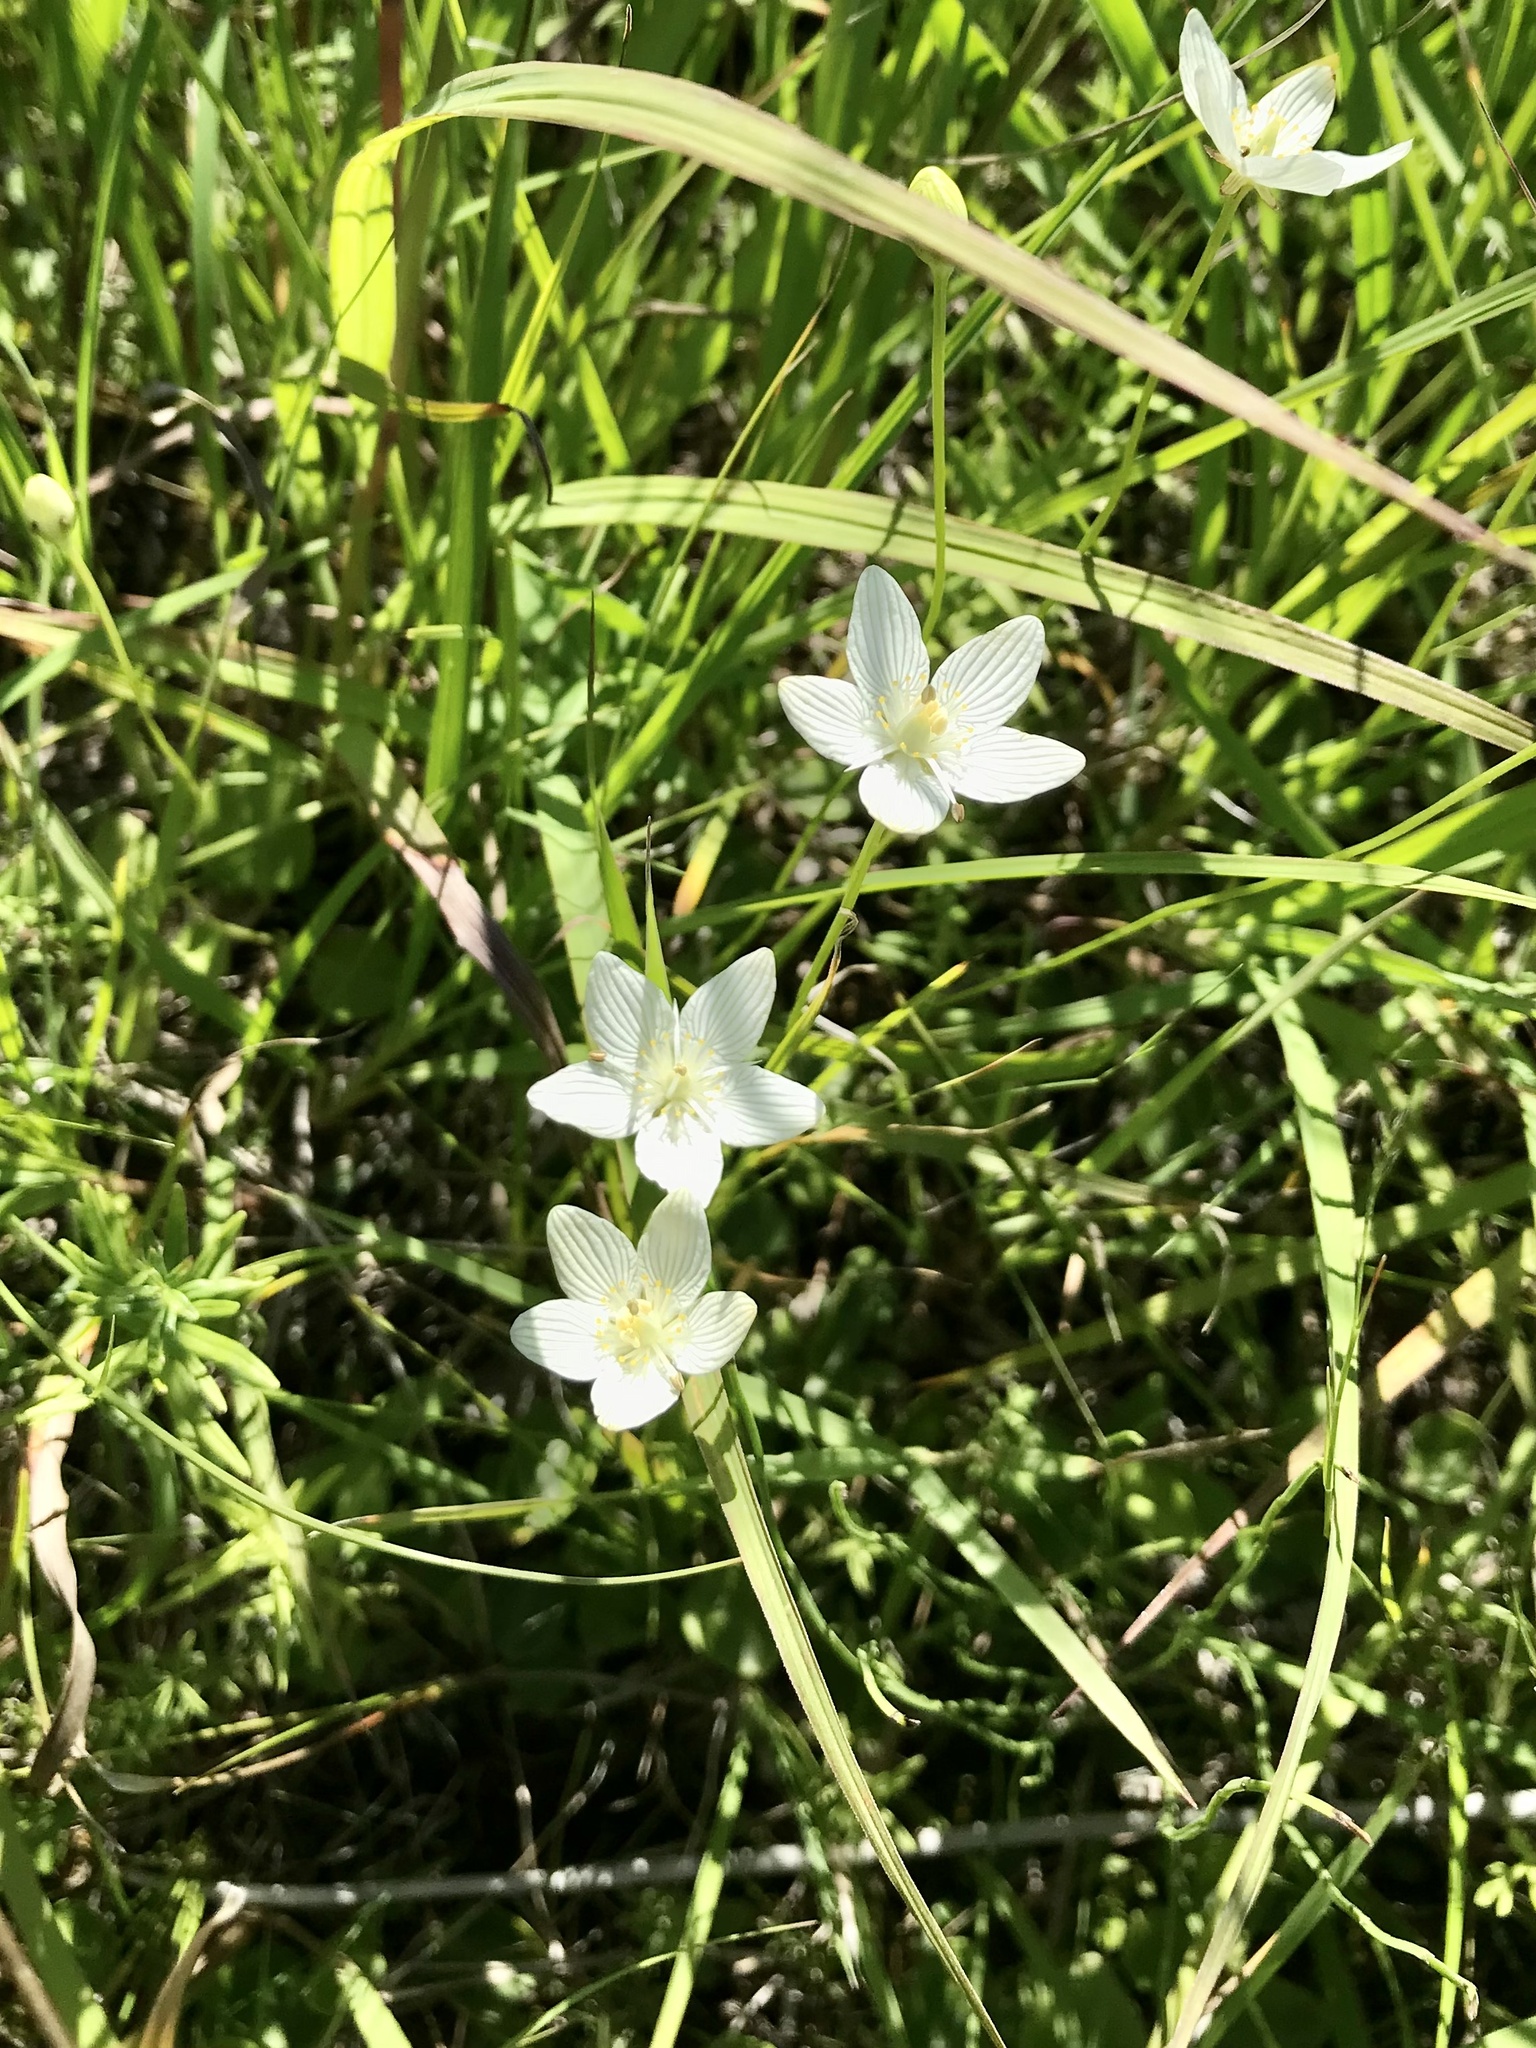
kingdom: Plantae
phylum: Tracheophyta
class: Magnoliopsida
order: Celastrales
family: Parnassiaceae
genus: Parnassia
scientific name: Parnassia glauca
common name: American grass-of-parnassus
